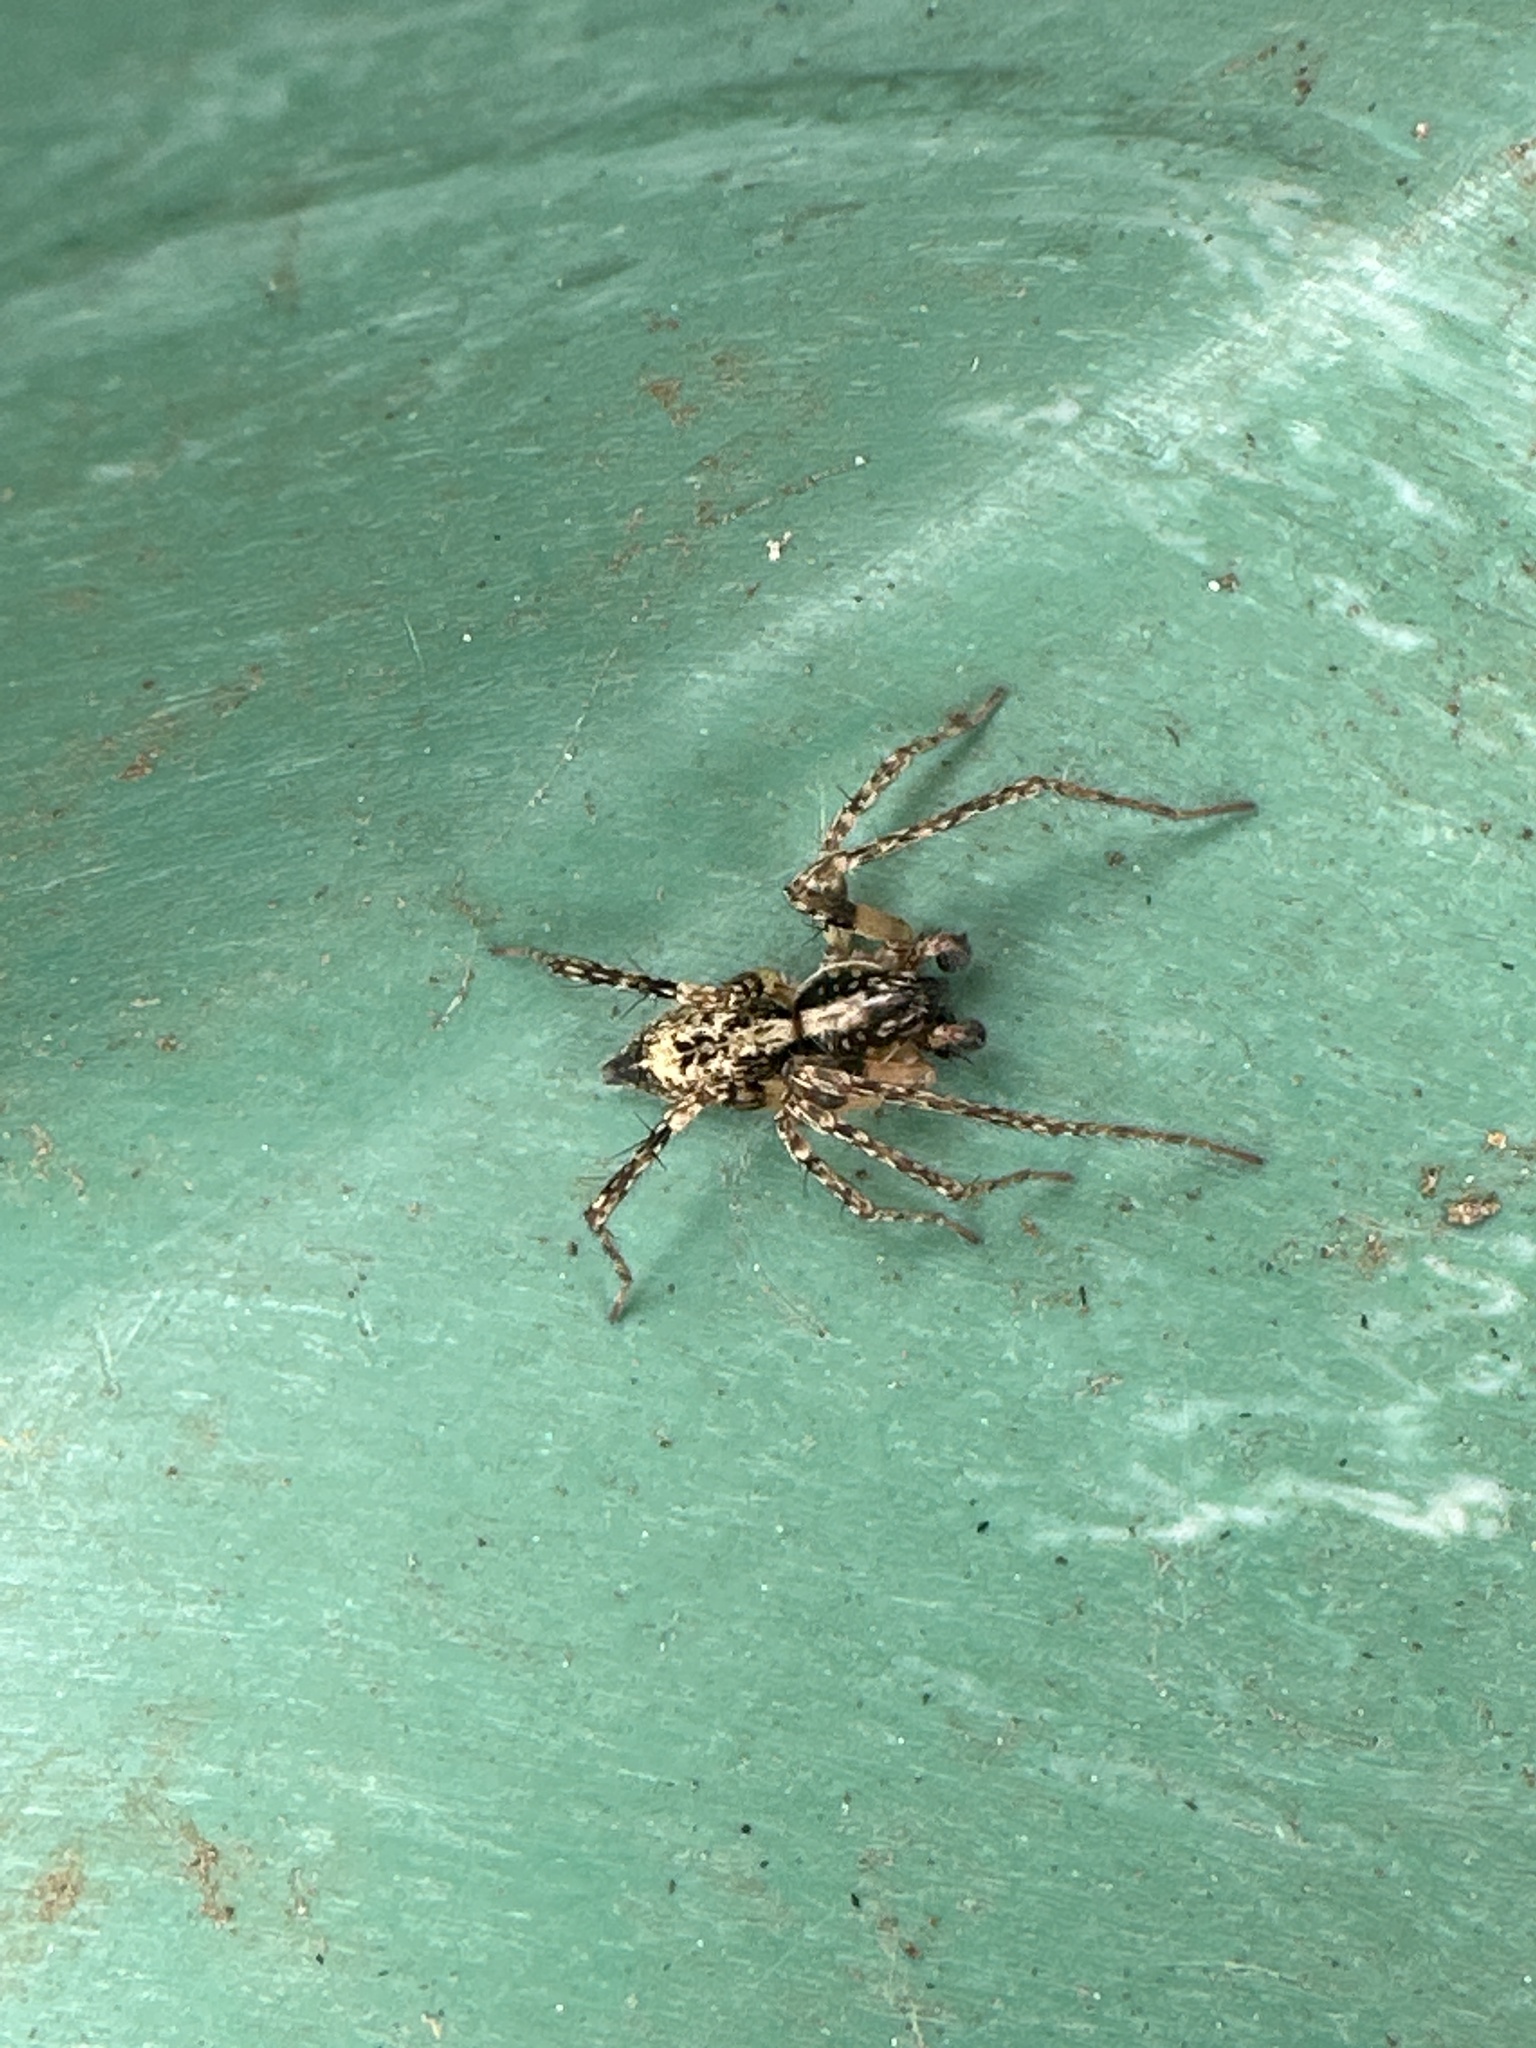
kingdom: Animalia
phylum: Arthropoda
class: Arachnida
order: Araneae
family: Anyphaenidae
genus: Anyphaena
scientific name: Anyphaena accentuata
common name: Buzzing spider
